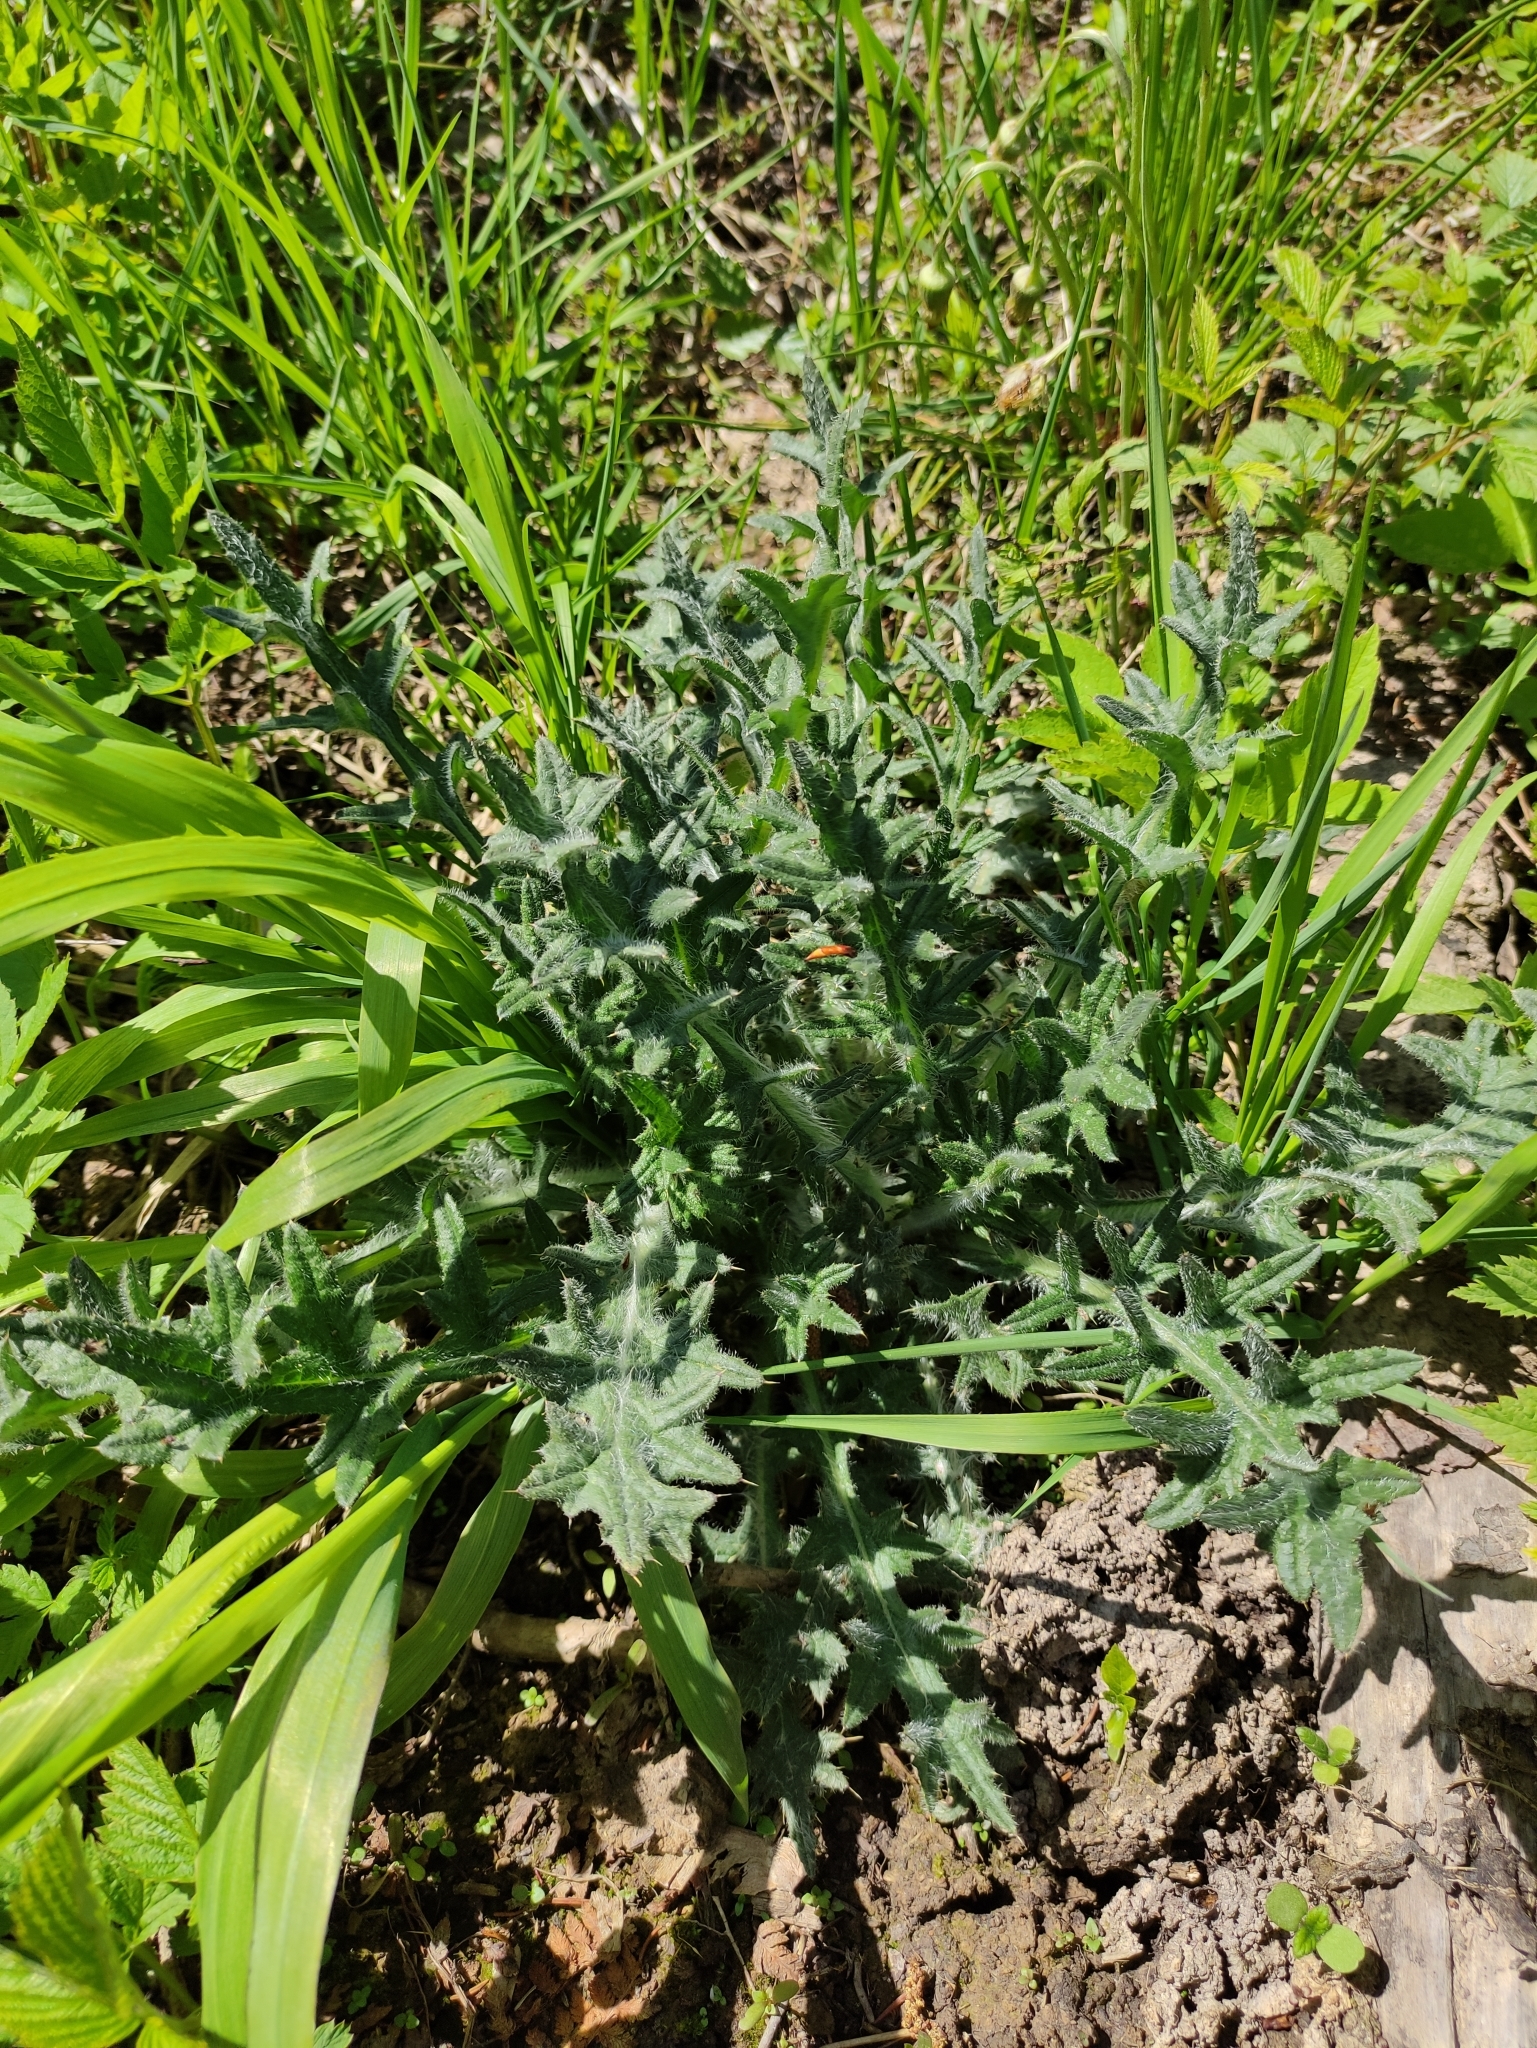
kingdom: Plantae
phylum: Tracheophyta
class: Magnoliopsida
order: Asterales
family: Asteraceae
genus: Cirsium
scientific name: Cirsium vulgare
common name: Bull thistle
